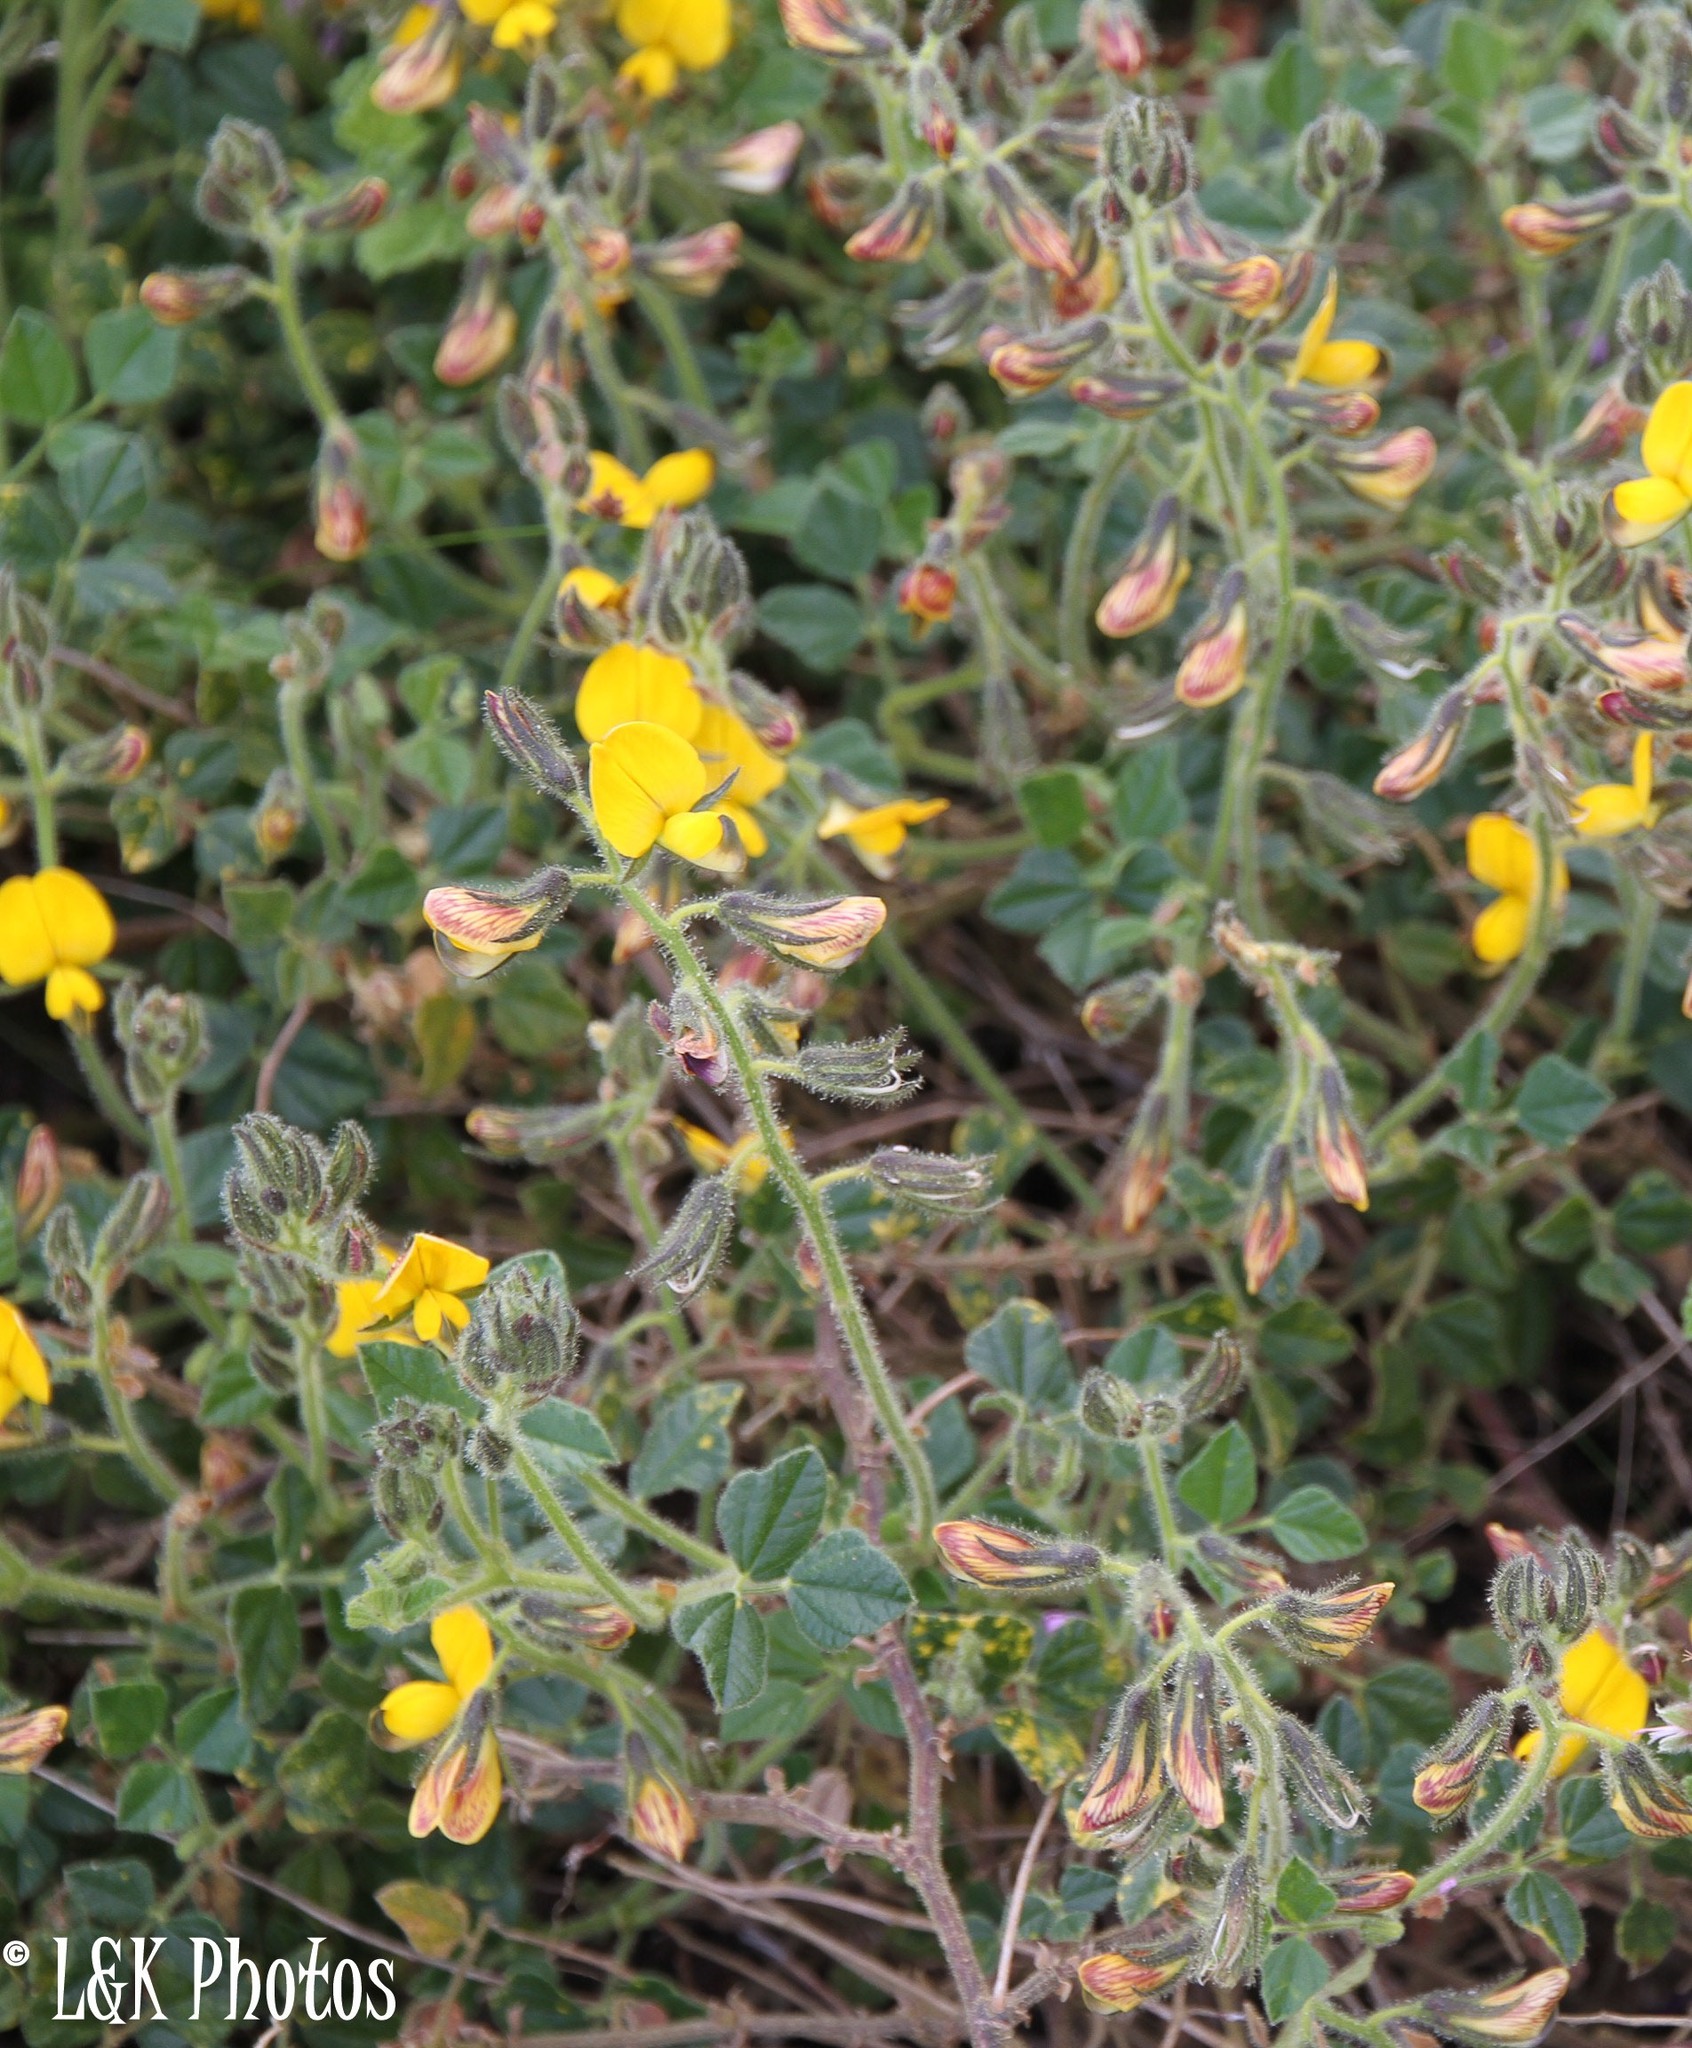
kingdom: Plantae
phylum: Tracheophyta
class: Magnoliopsida
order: Fabales
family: Fabaceae
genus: Bolusafra
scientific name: Bolusafra bituminosa
